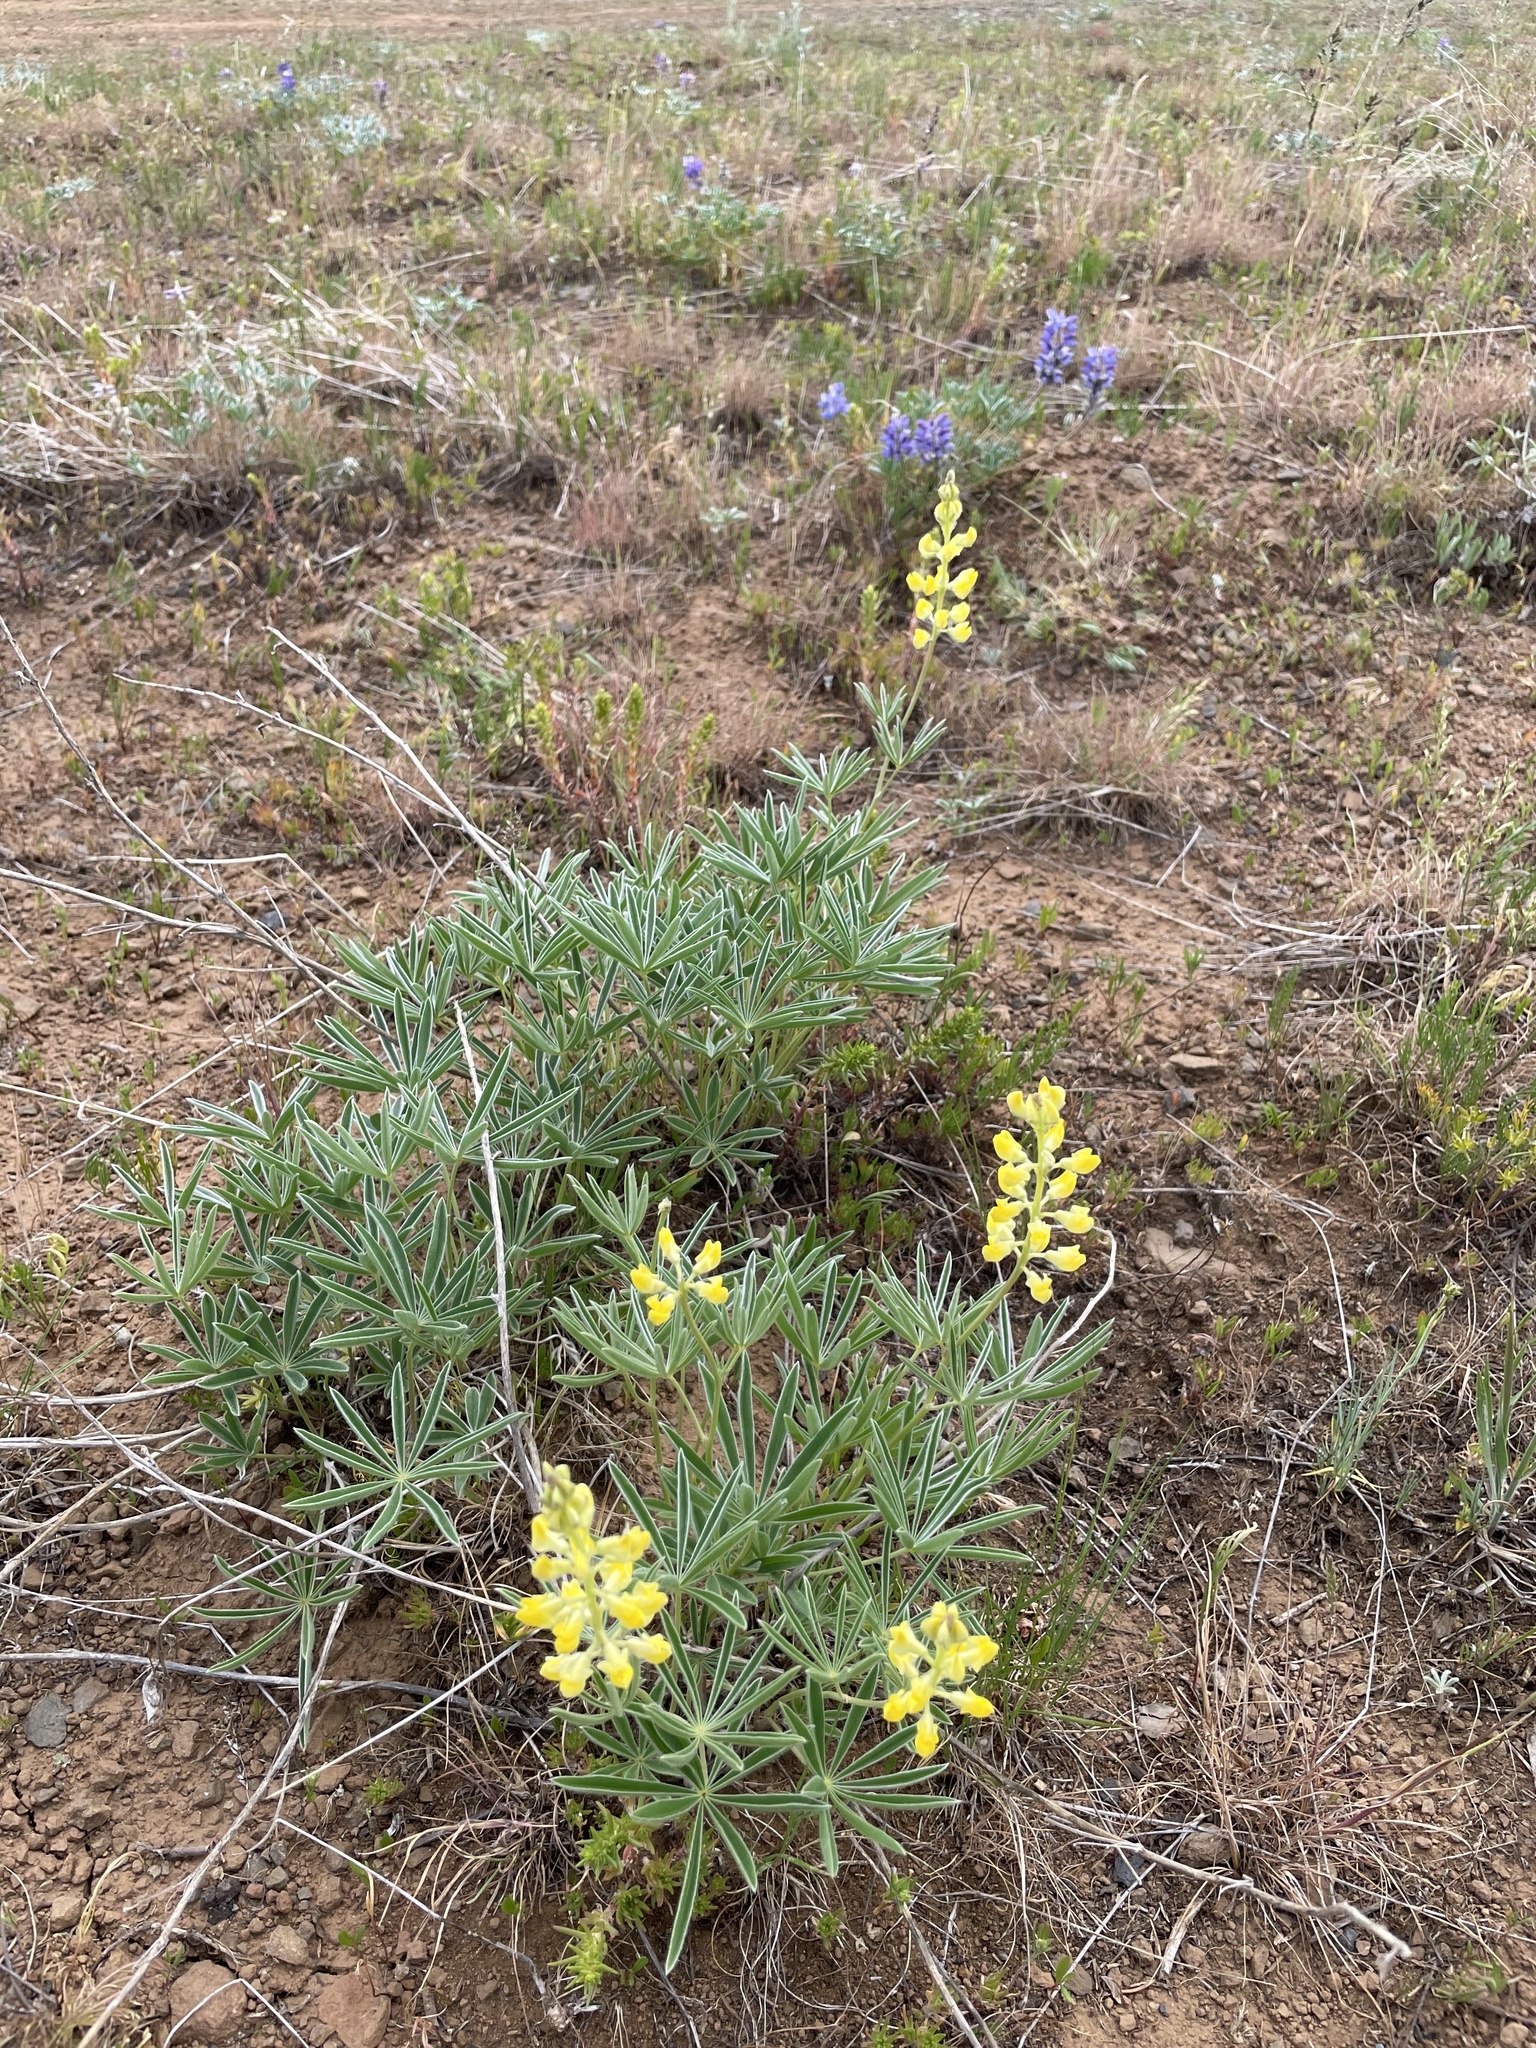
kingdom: Plantae
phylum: Tracheophyta
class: Magnoliopsida
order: Fabales
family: Fabaceae
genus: Lupinus
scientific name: Lupinus sulphureus
